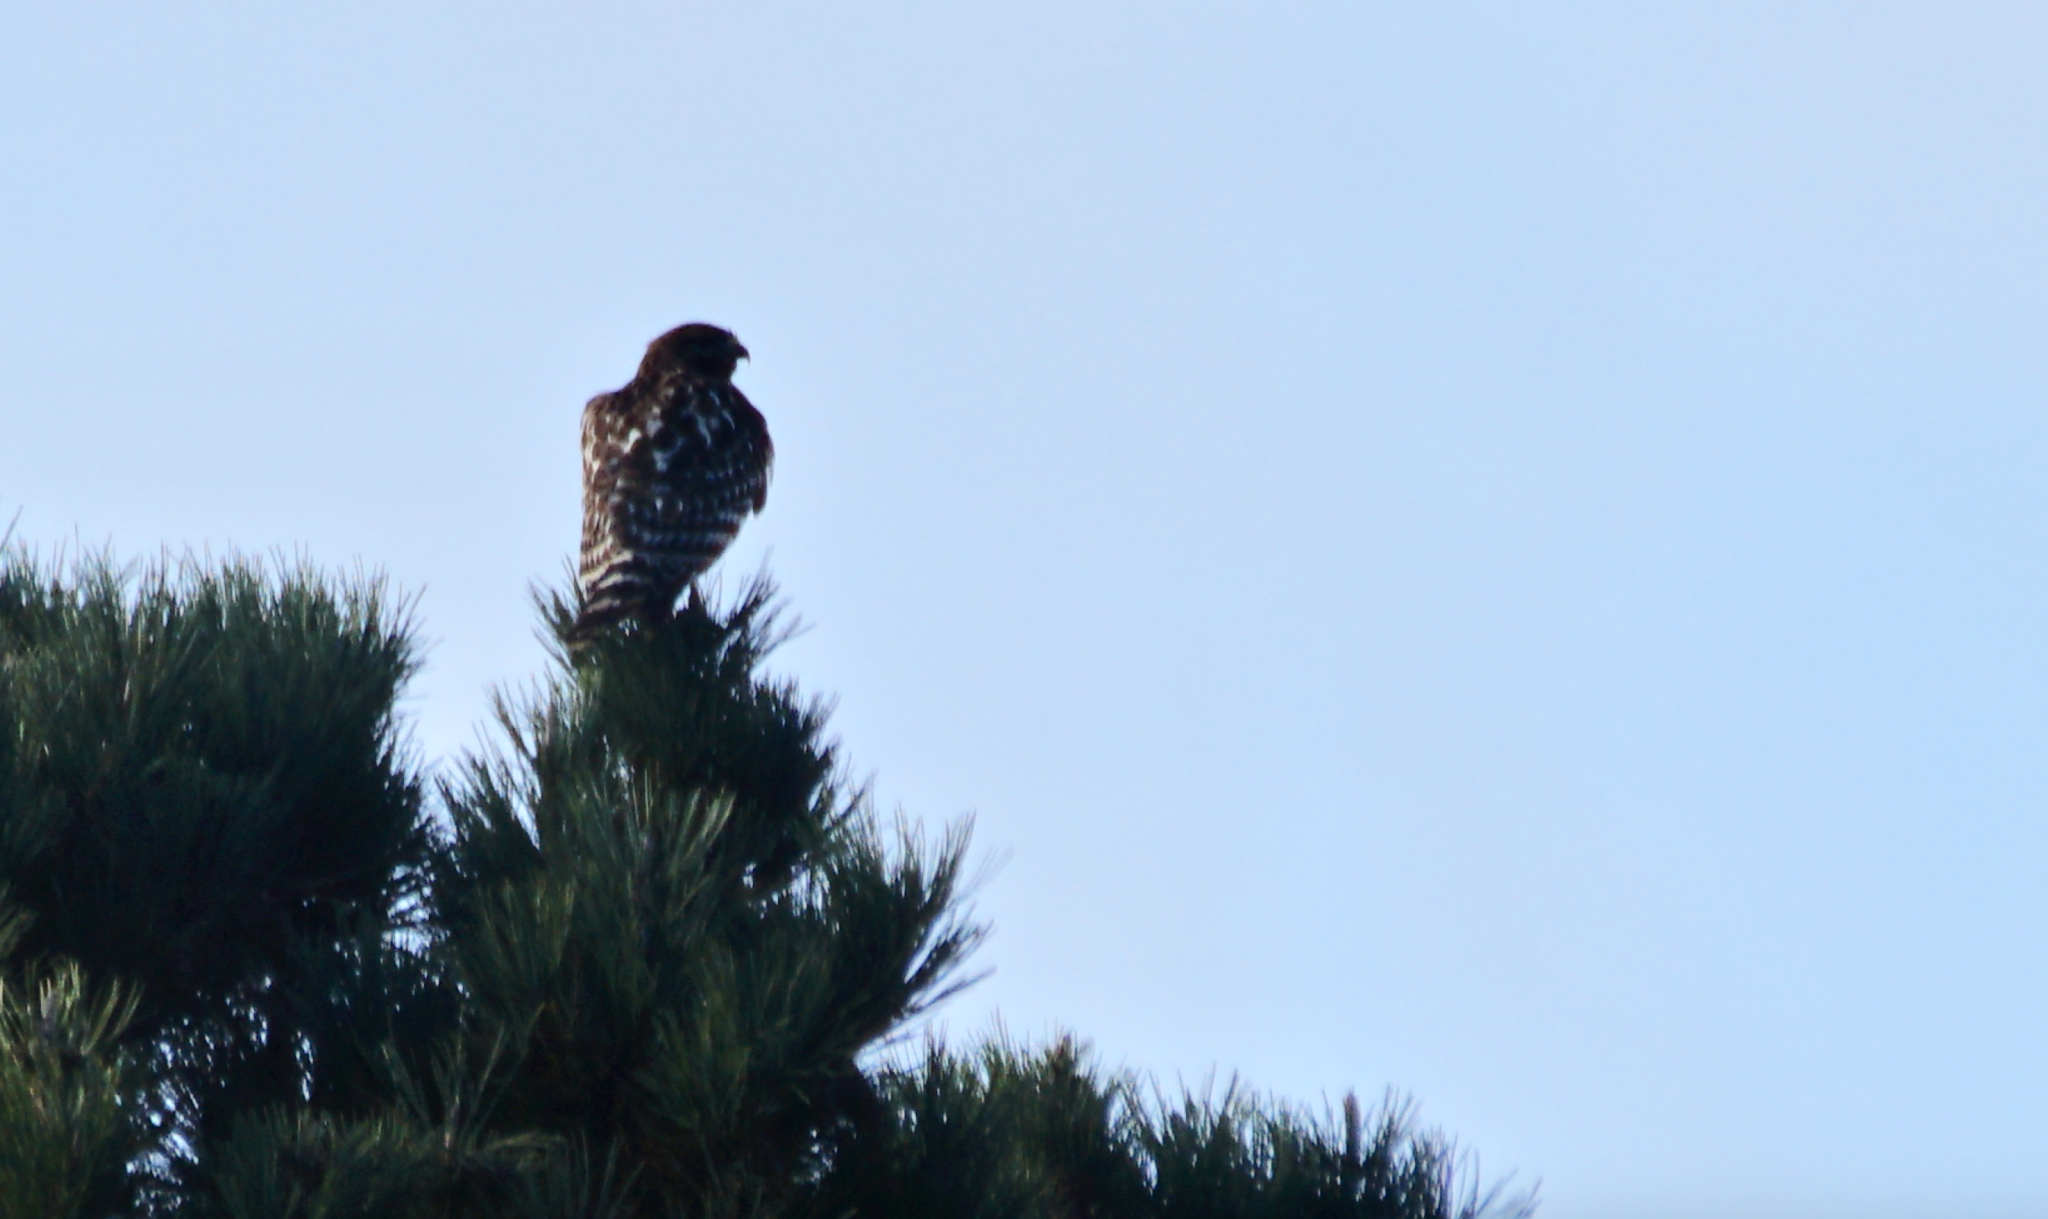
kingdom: Animalia
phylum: Chordata
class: Aves
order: Accipitriformes
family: Accipitridae
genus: Buteo
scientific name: Buteo lineatus
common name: Red-shouldered hawk
